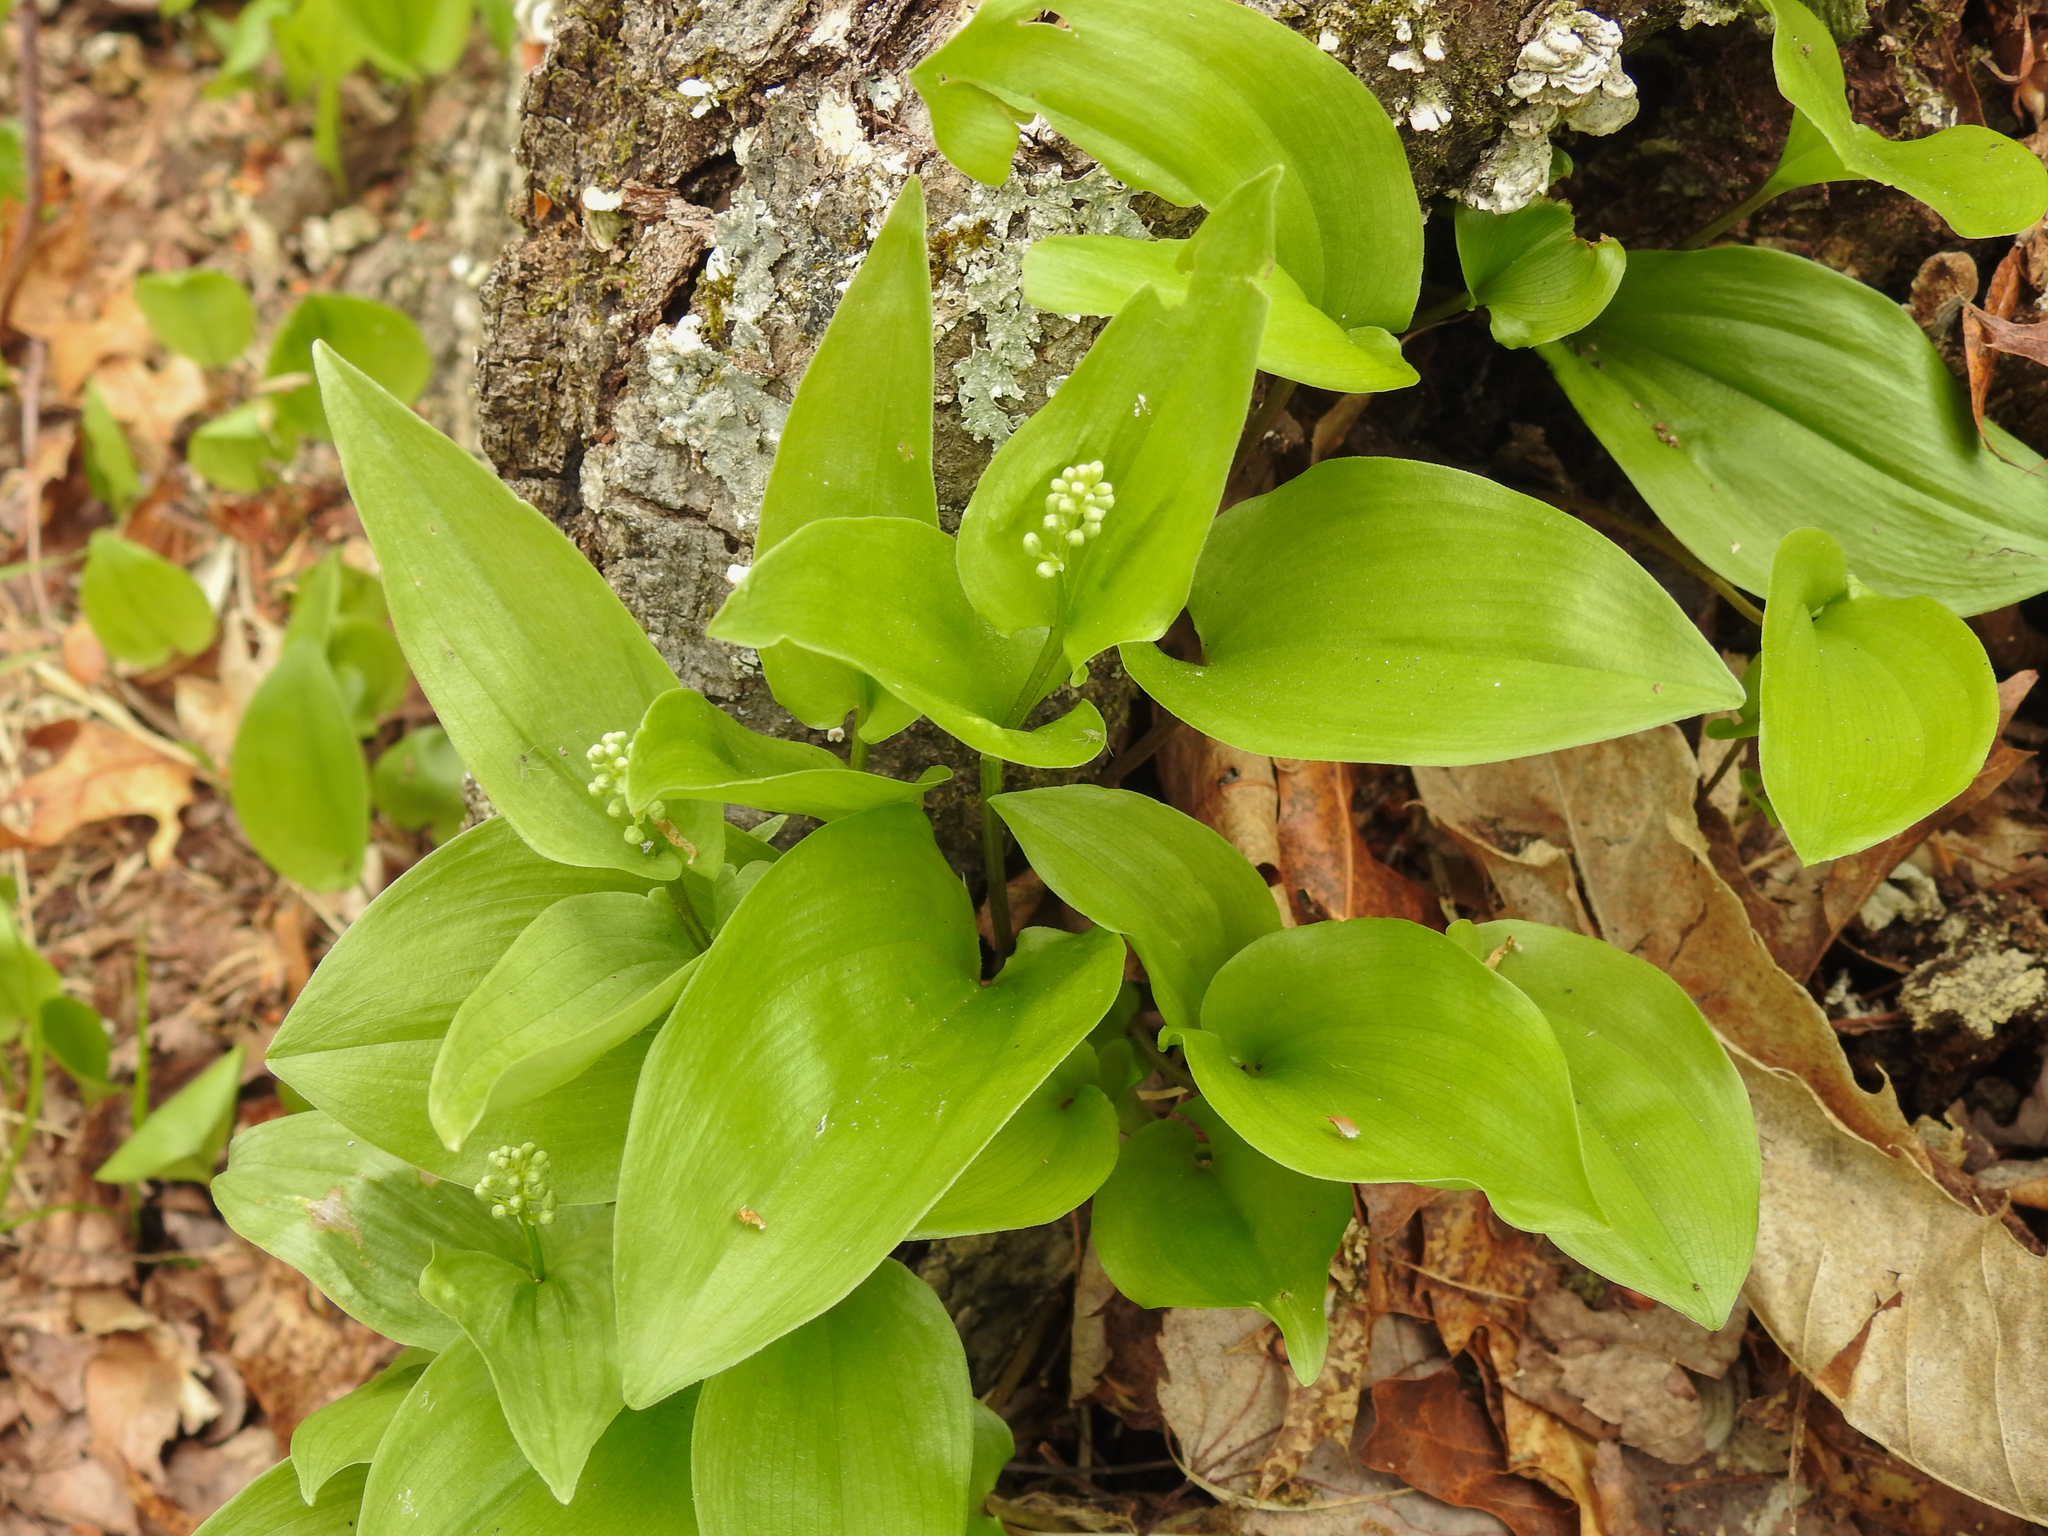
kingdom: Plantae
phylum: Tracheophyta
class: Liliopsida
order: Asparagales
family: Asparagaceae
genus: Maianthemum
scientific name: Maianthemum canadense
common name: False lily-of-the-valley
